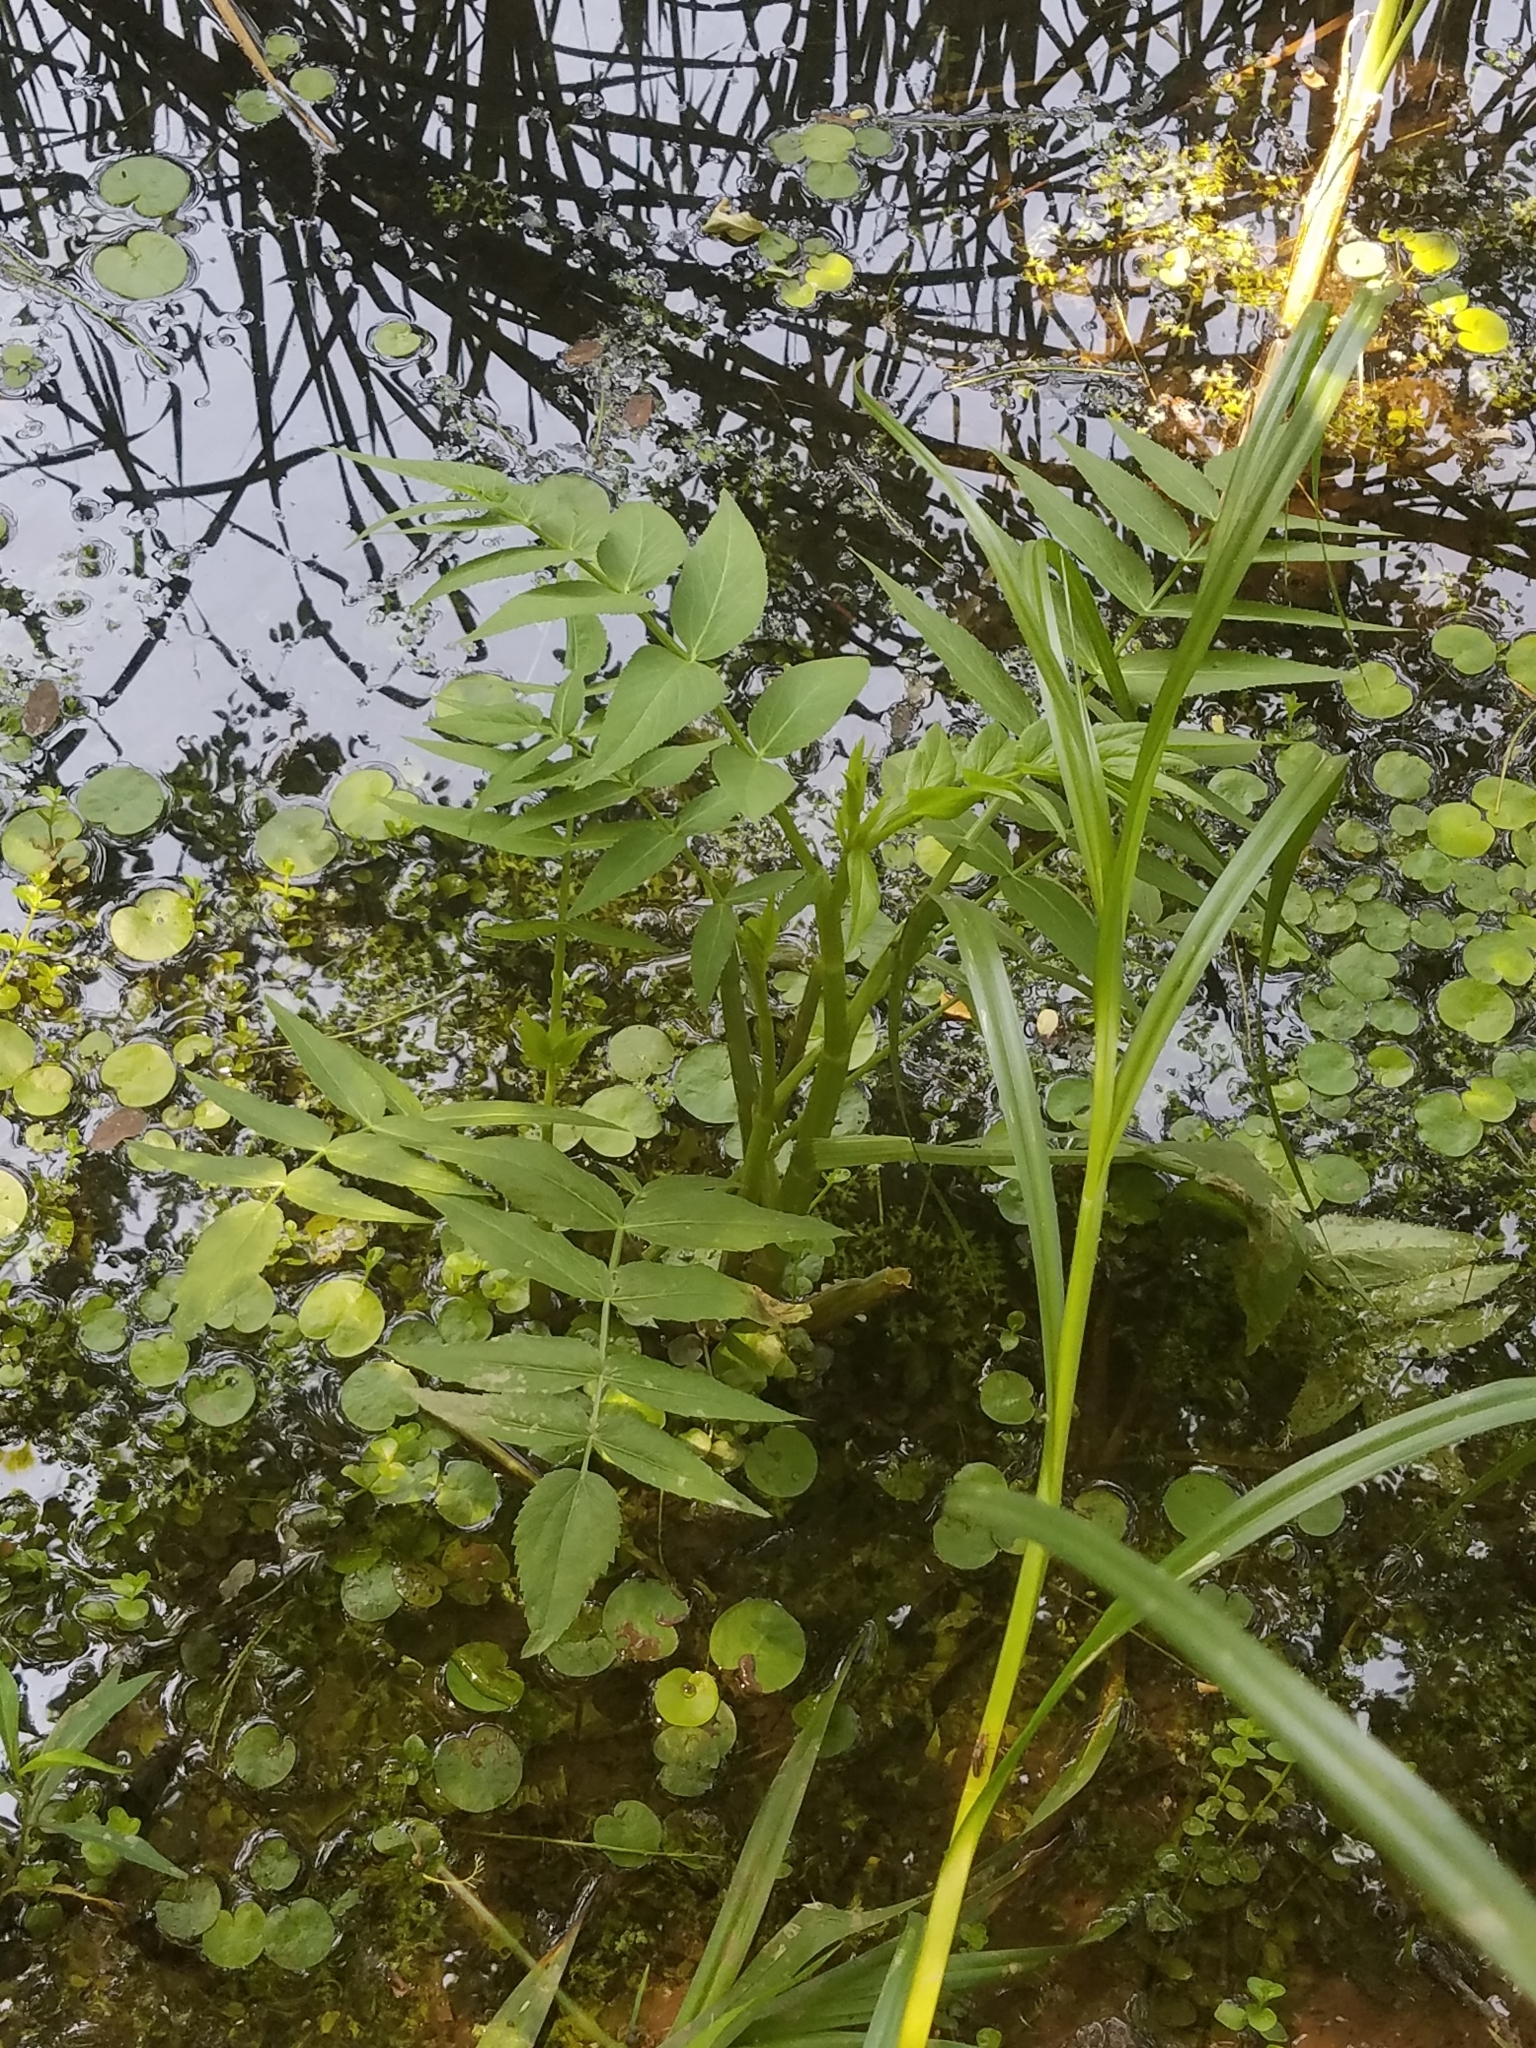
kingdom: Plantae
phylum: Tracheophyta
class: Magnoliopsida
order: Apiales
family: Apiaceae
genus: Sium
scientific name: Sium suave
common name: Hemlock water-parsnip
